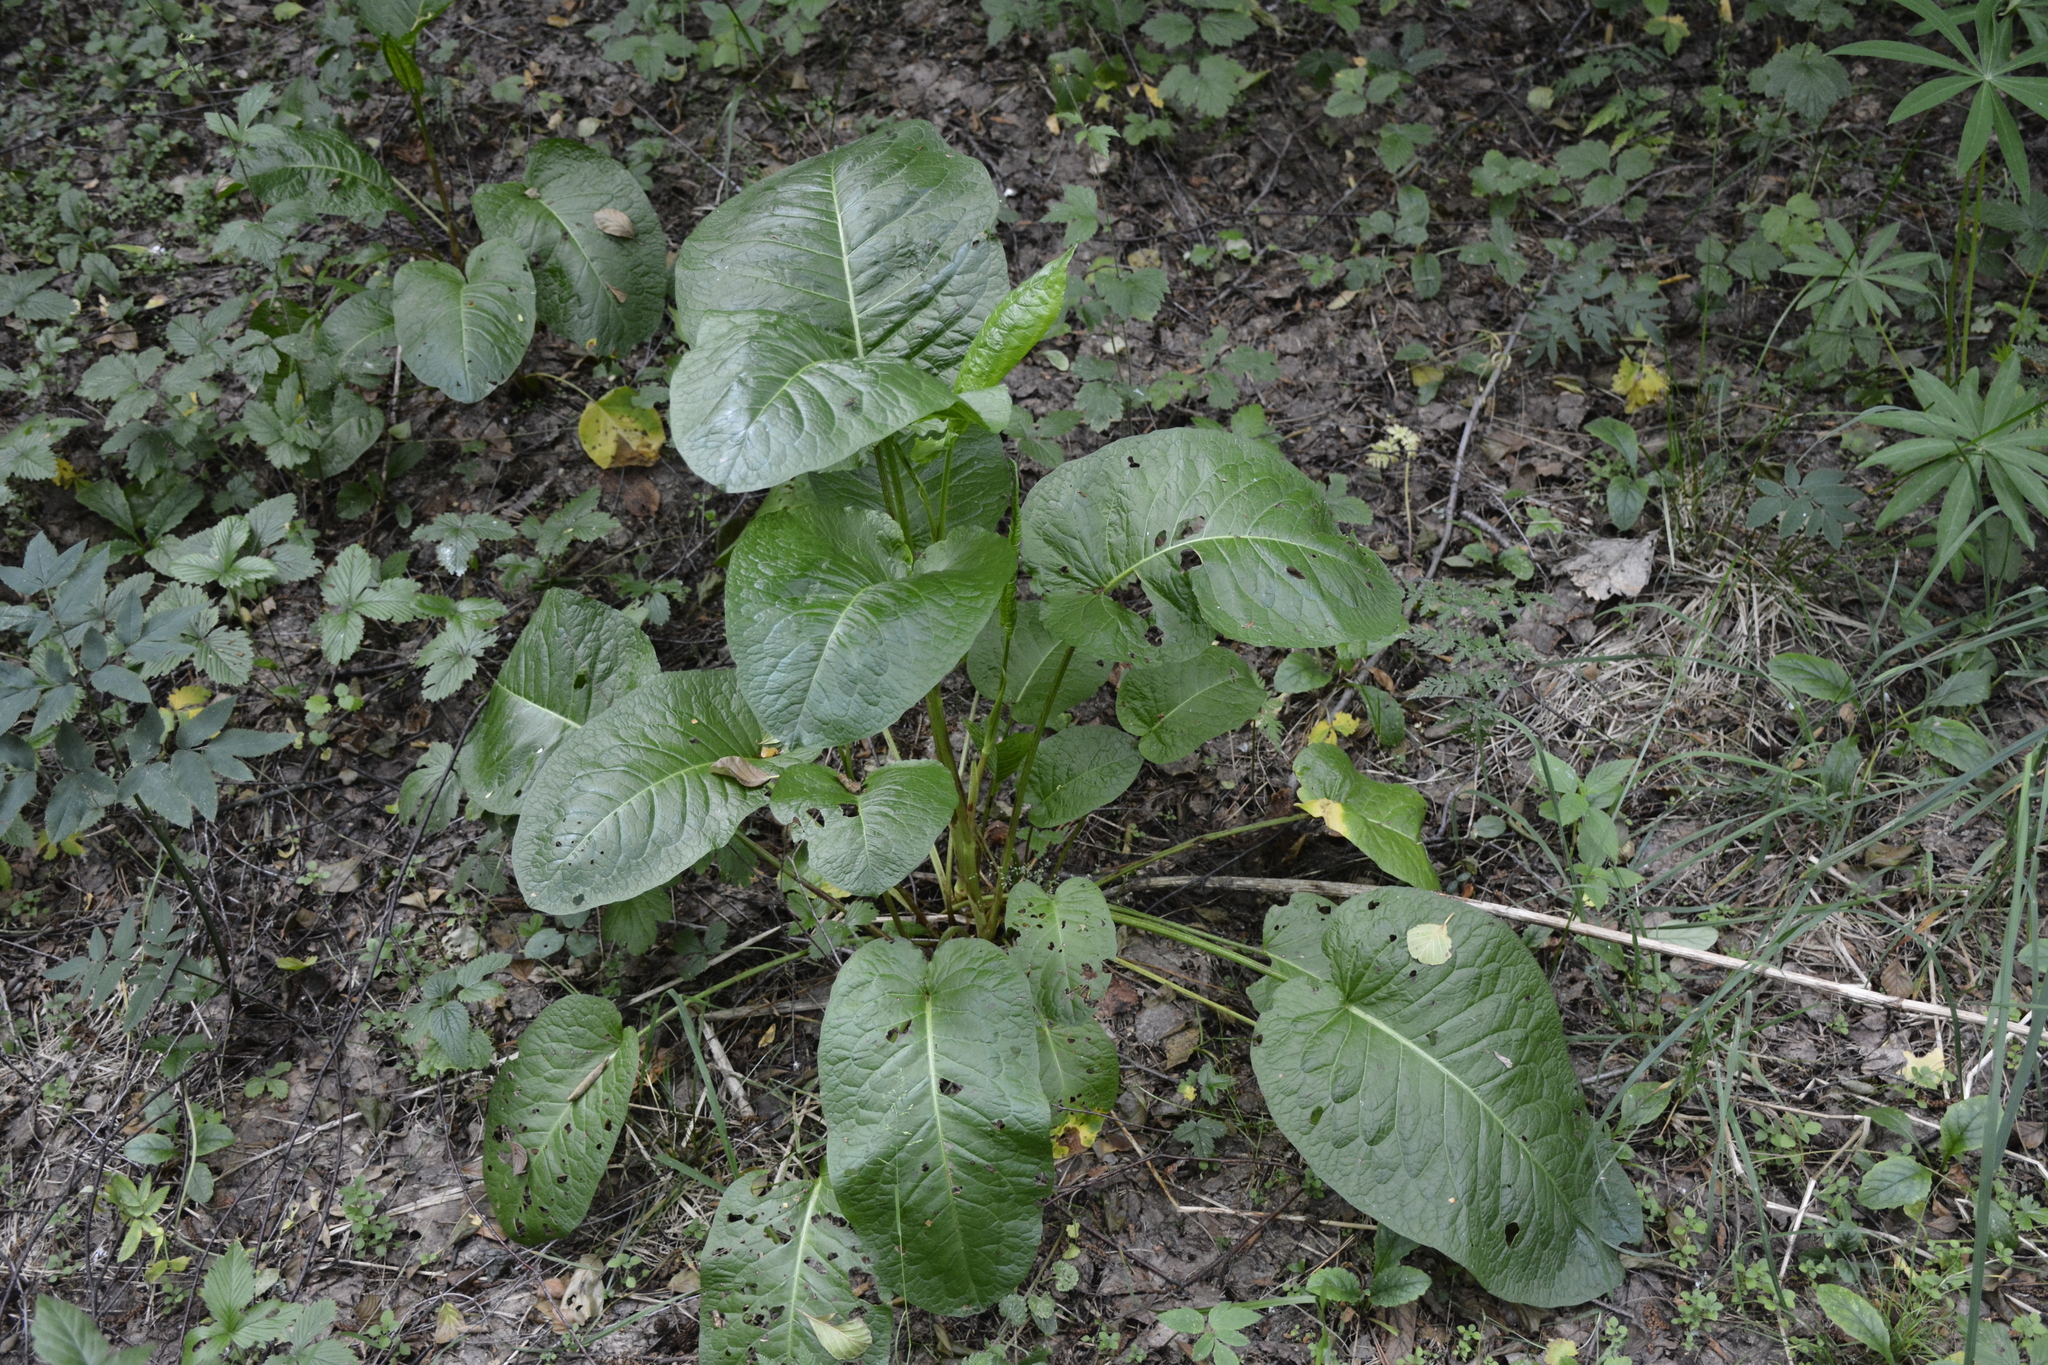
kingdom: Plantae
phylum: Tracheophyta
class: Magnoliopsida
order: Caryophyllales
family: Polygonaceae
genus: Rumex
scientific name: Rumex obtusifolius
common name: Bitter dock
